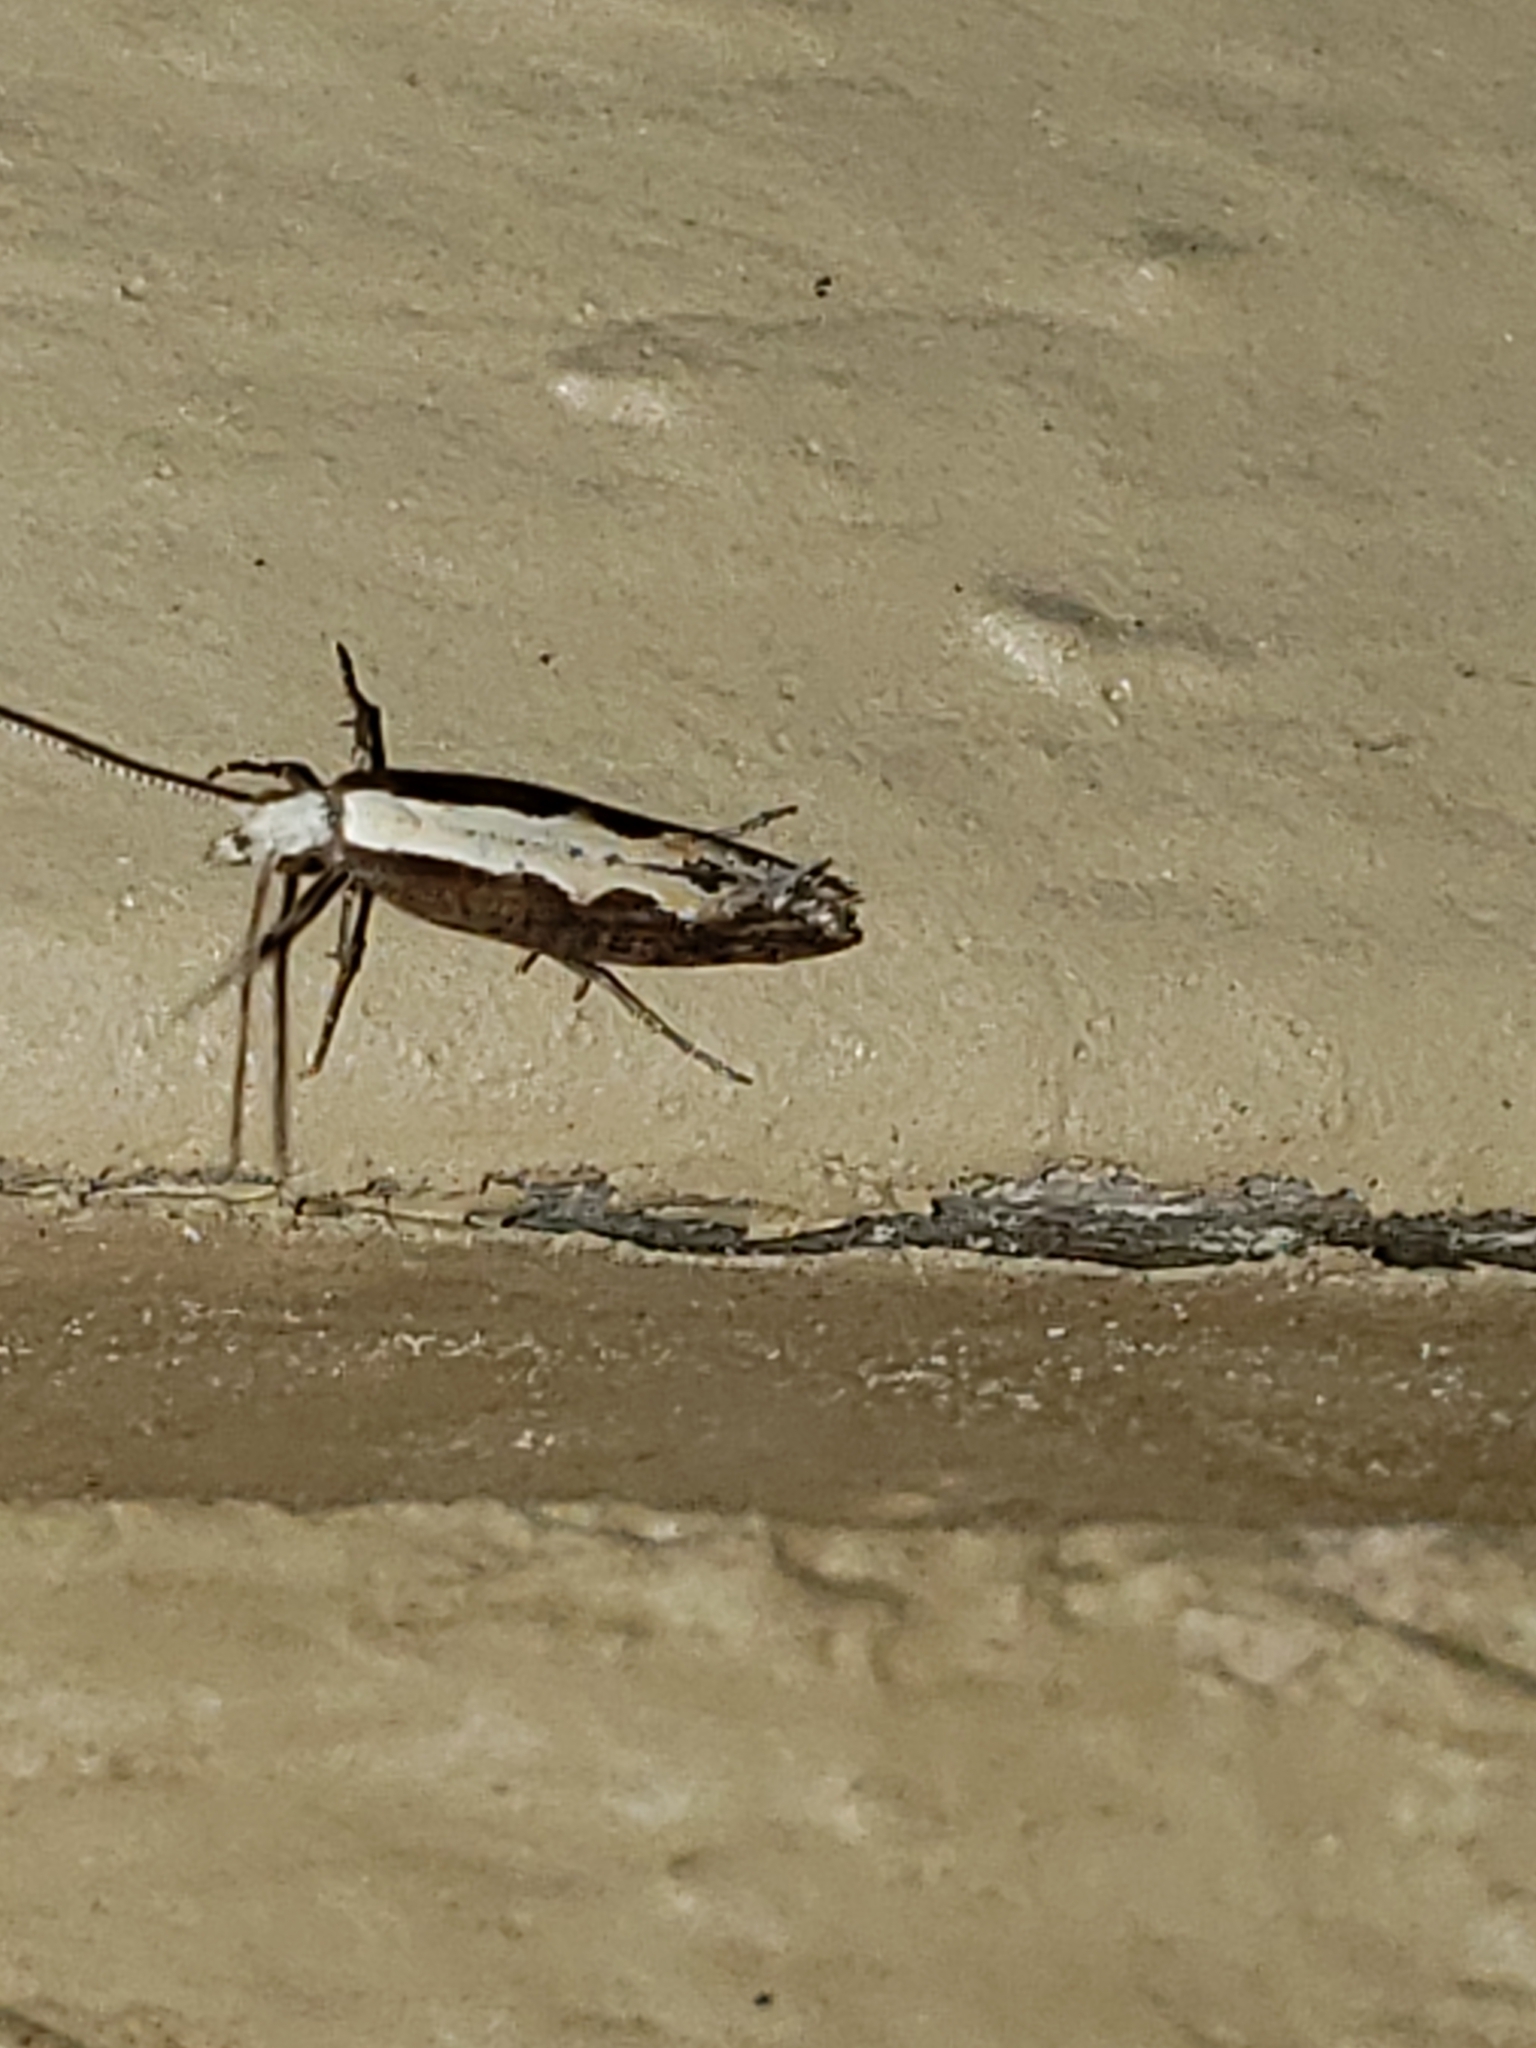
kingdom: Animalia
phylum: Arthropoda
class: Insecta
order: Lepidoptera
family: Plutellidae
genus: Plutella
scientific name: Plutella xylostella
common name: Diamond-back moth
